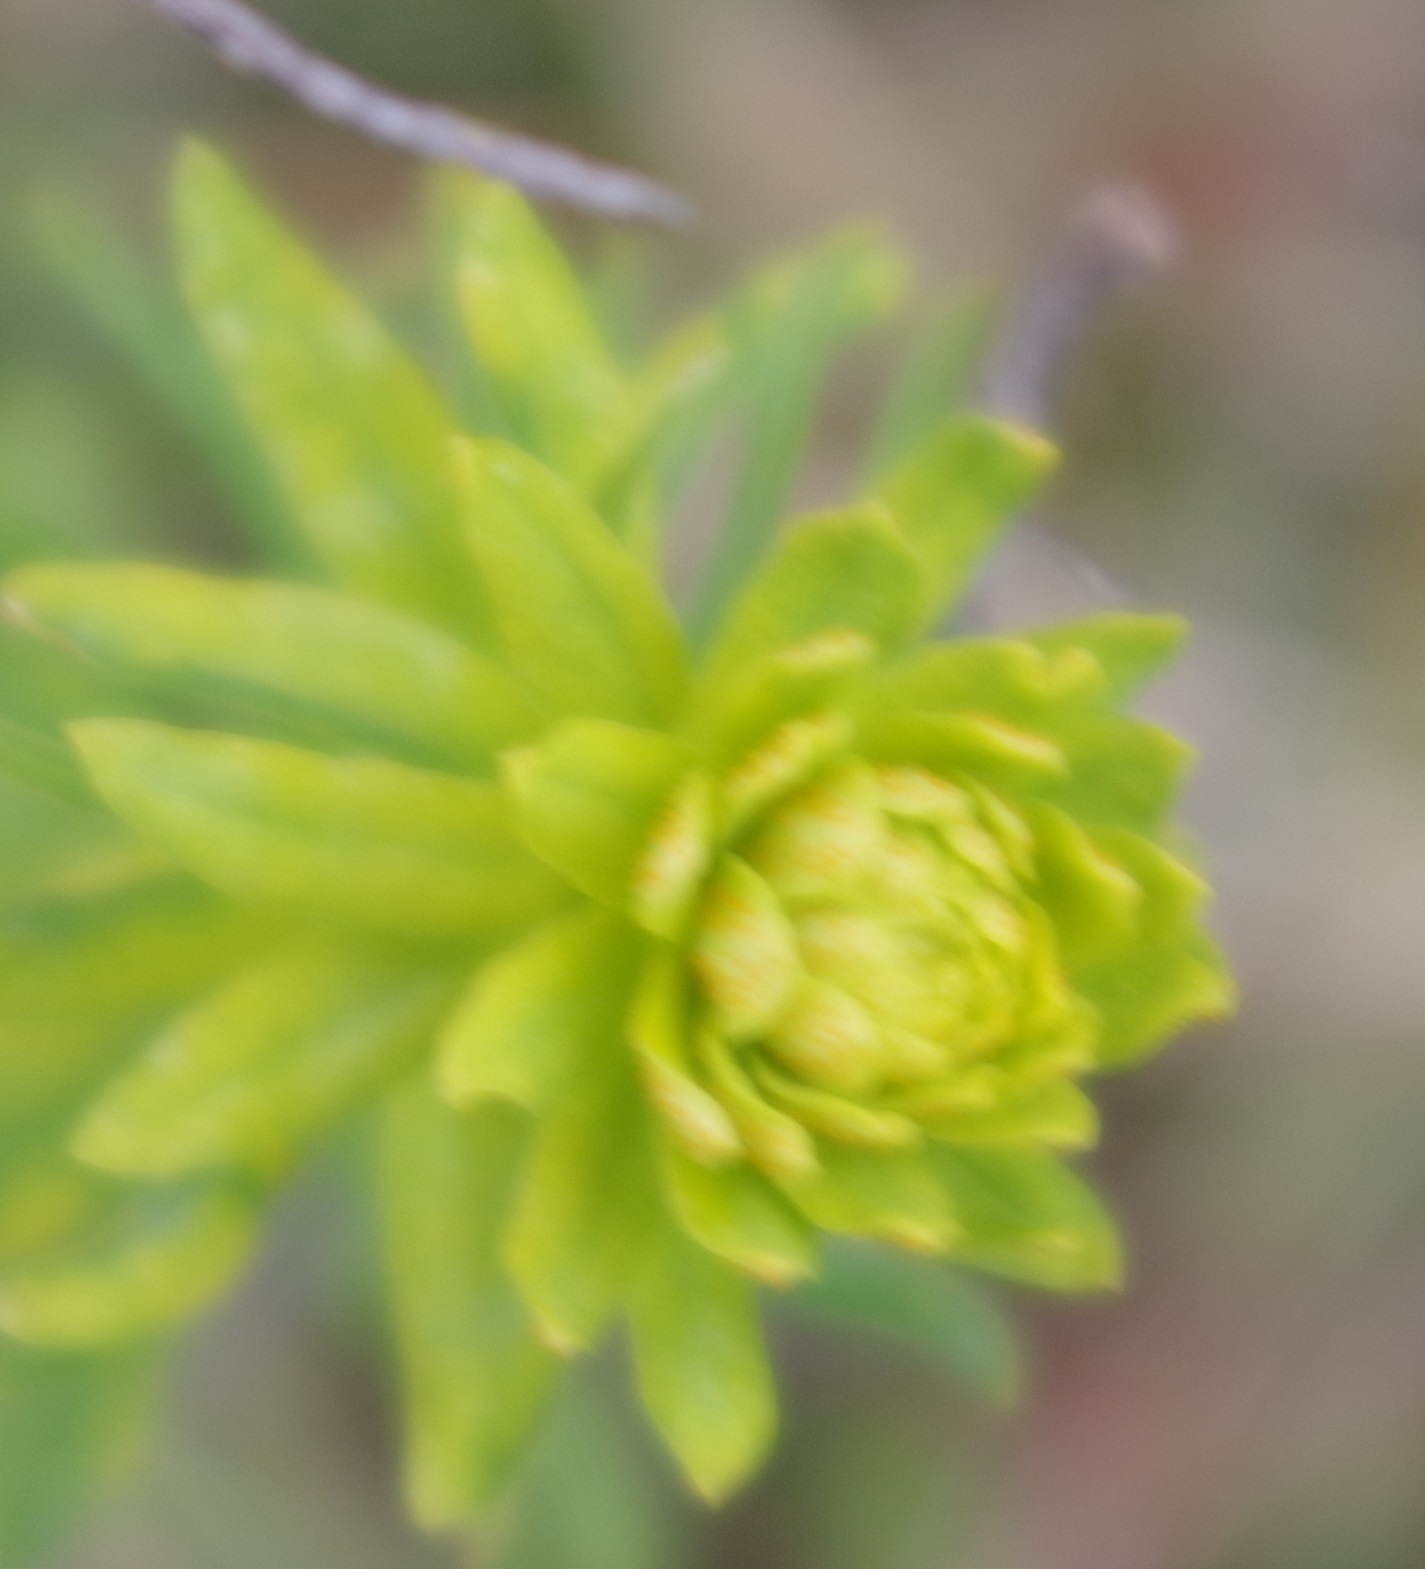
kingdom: Plantae
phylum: Tracheophyta
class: Magnoliopsida
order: Malpighiales
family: Euphorbiaceae
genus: Euphorbia
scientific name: Euphorbia cyparissias
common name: Cypress spurge
